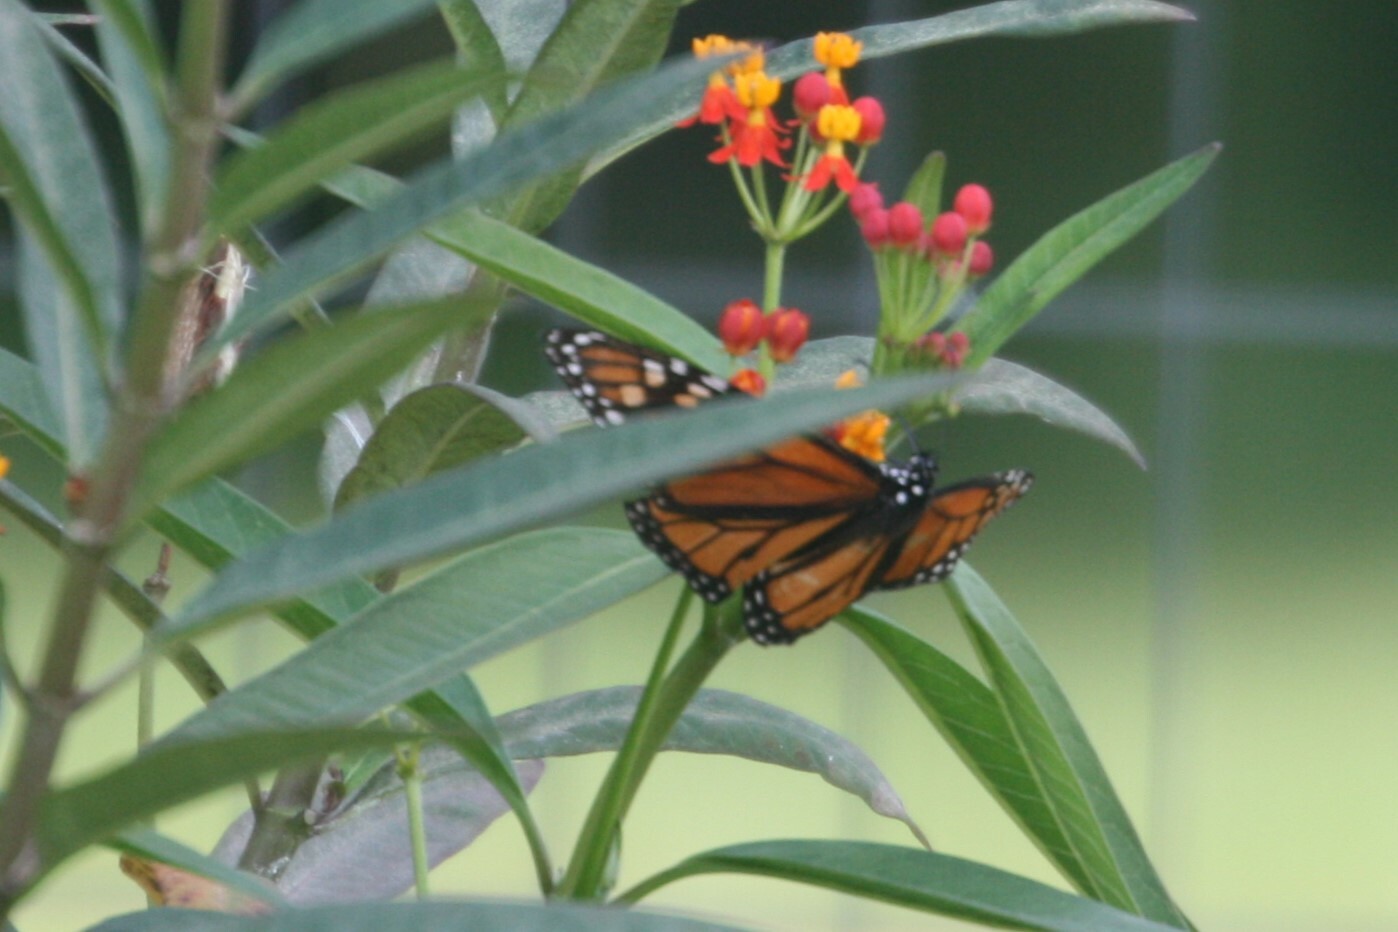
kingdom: Animalia
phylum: Arthropoda
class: Insecta
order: Lepidoptera
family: Nymphalidae
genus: Danaus
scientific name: Danaus plexippus
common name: Monarch
